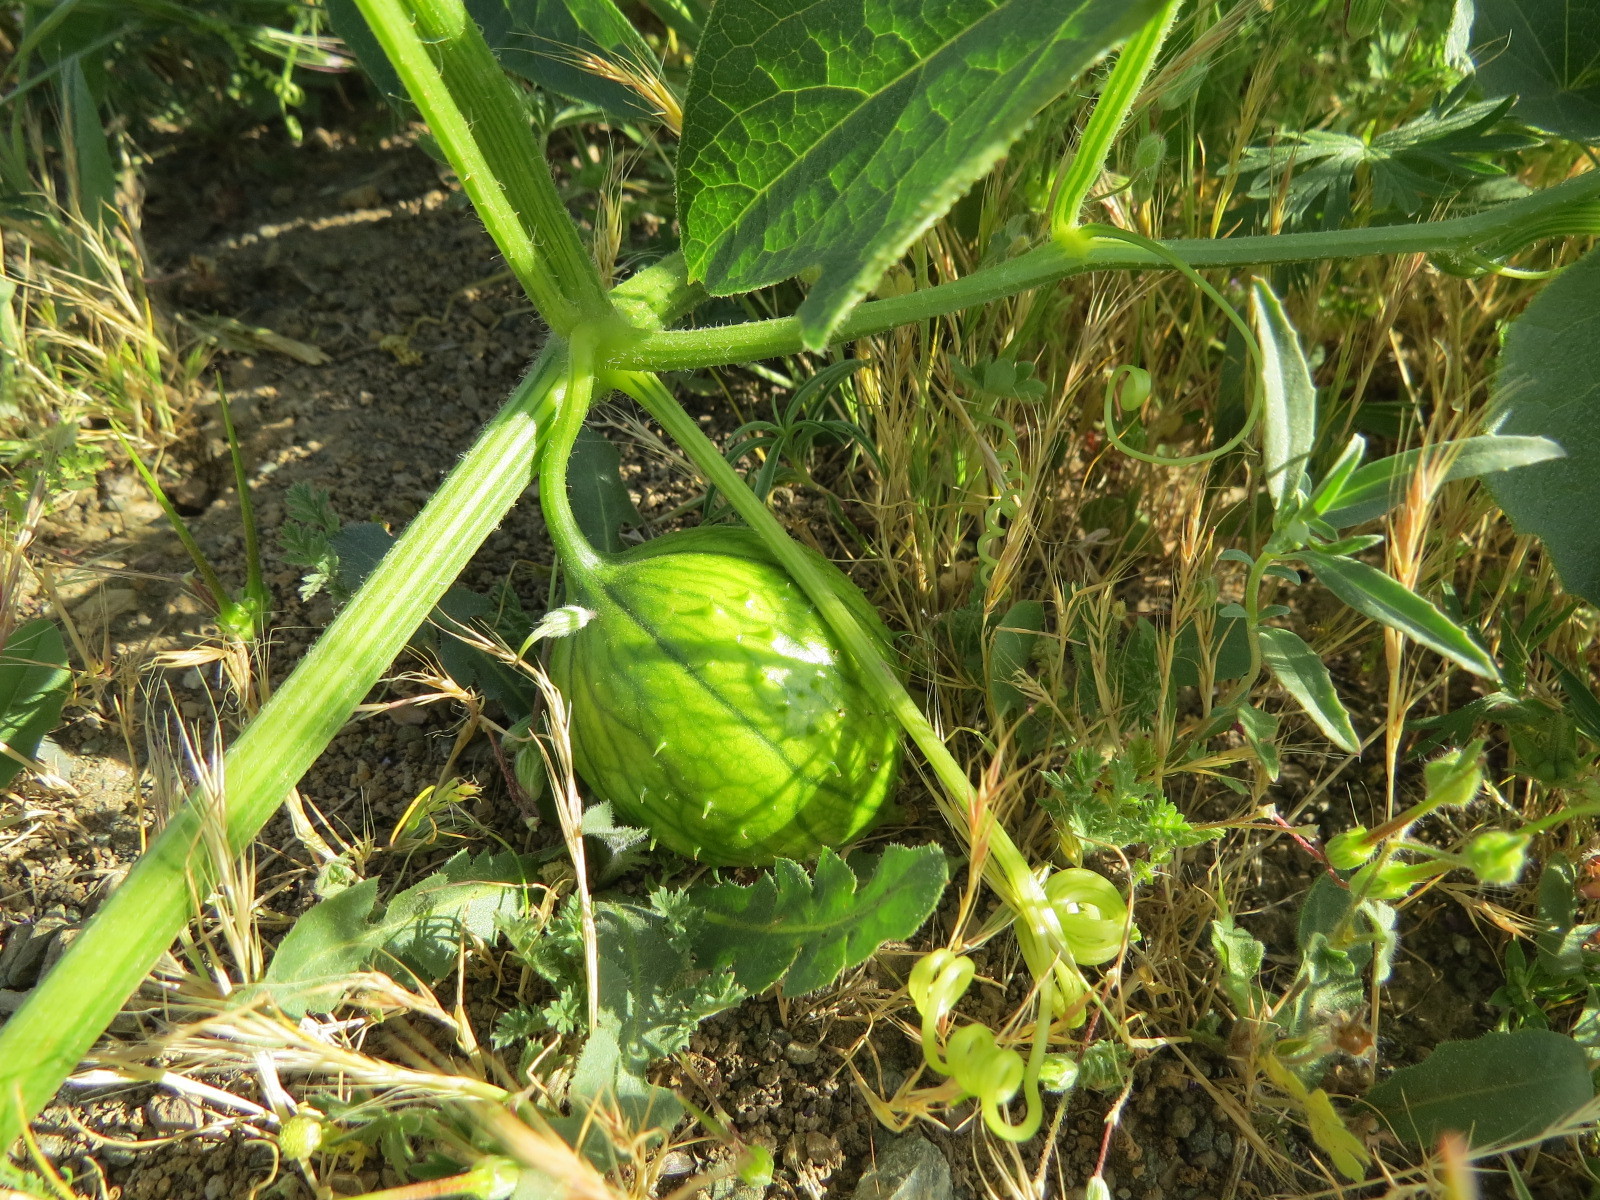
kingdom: Plantae
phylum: Tracheophyta
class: Magnoliopsida
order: Cucurbitales
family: Cucurbitaceae
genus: Marah
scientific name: Marah oregana
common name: Coastal manroot
